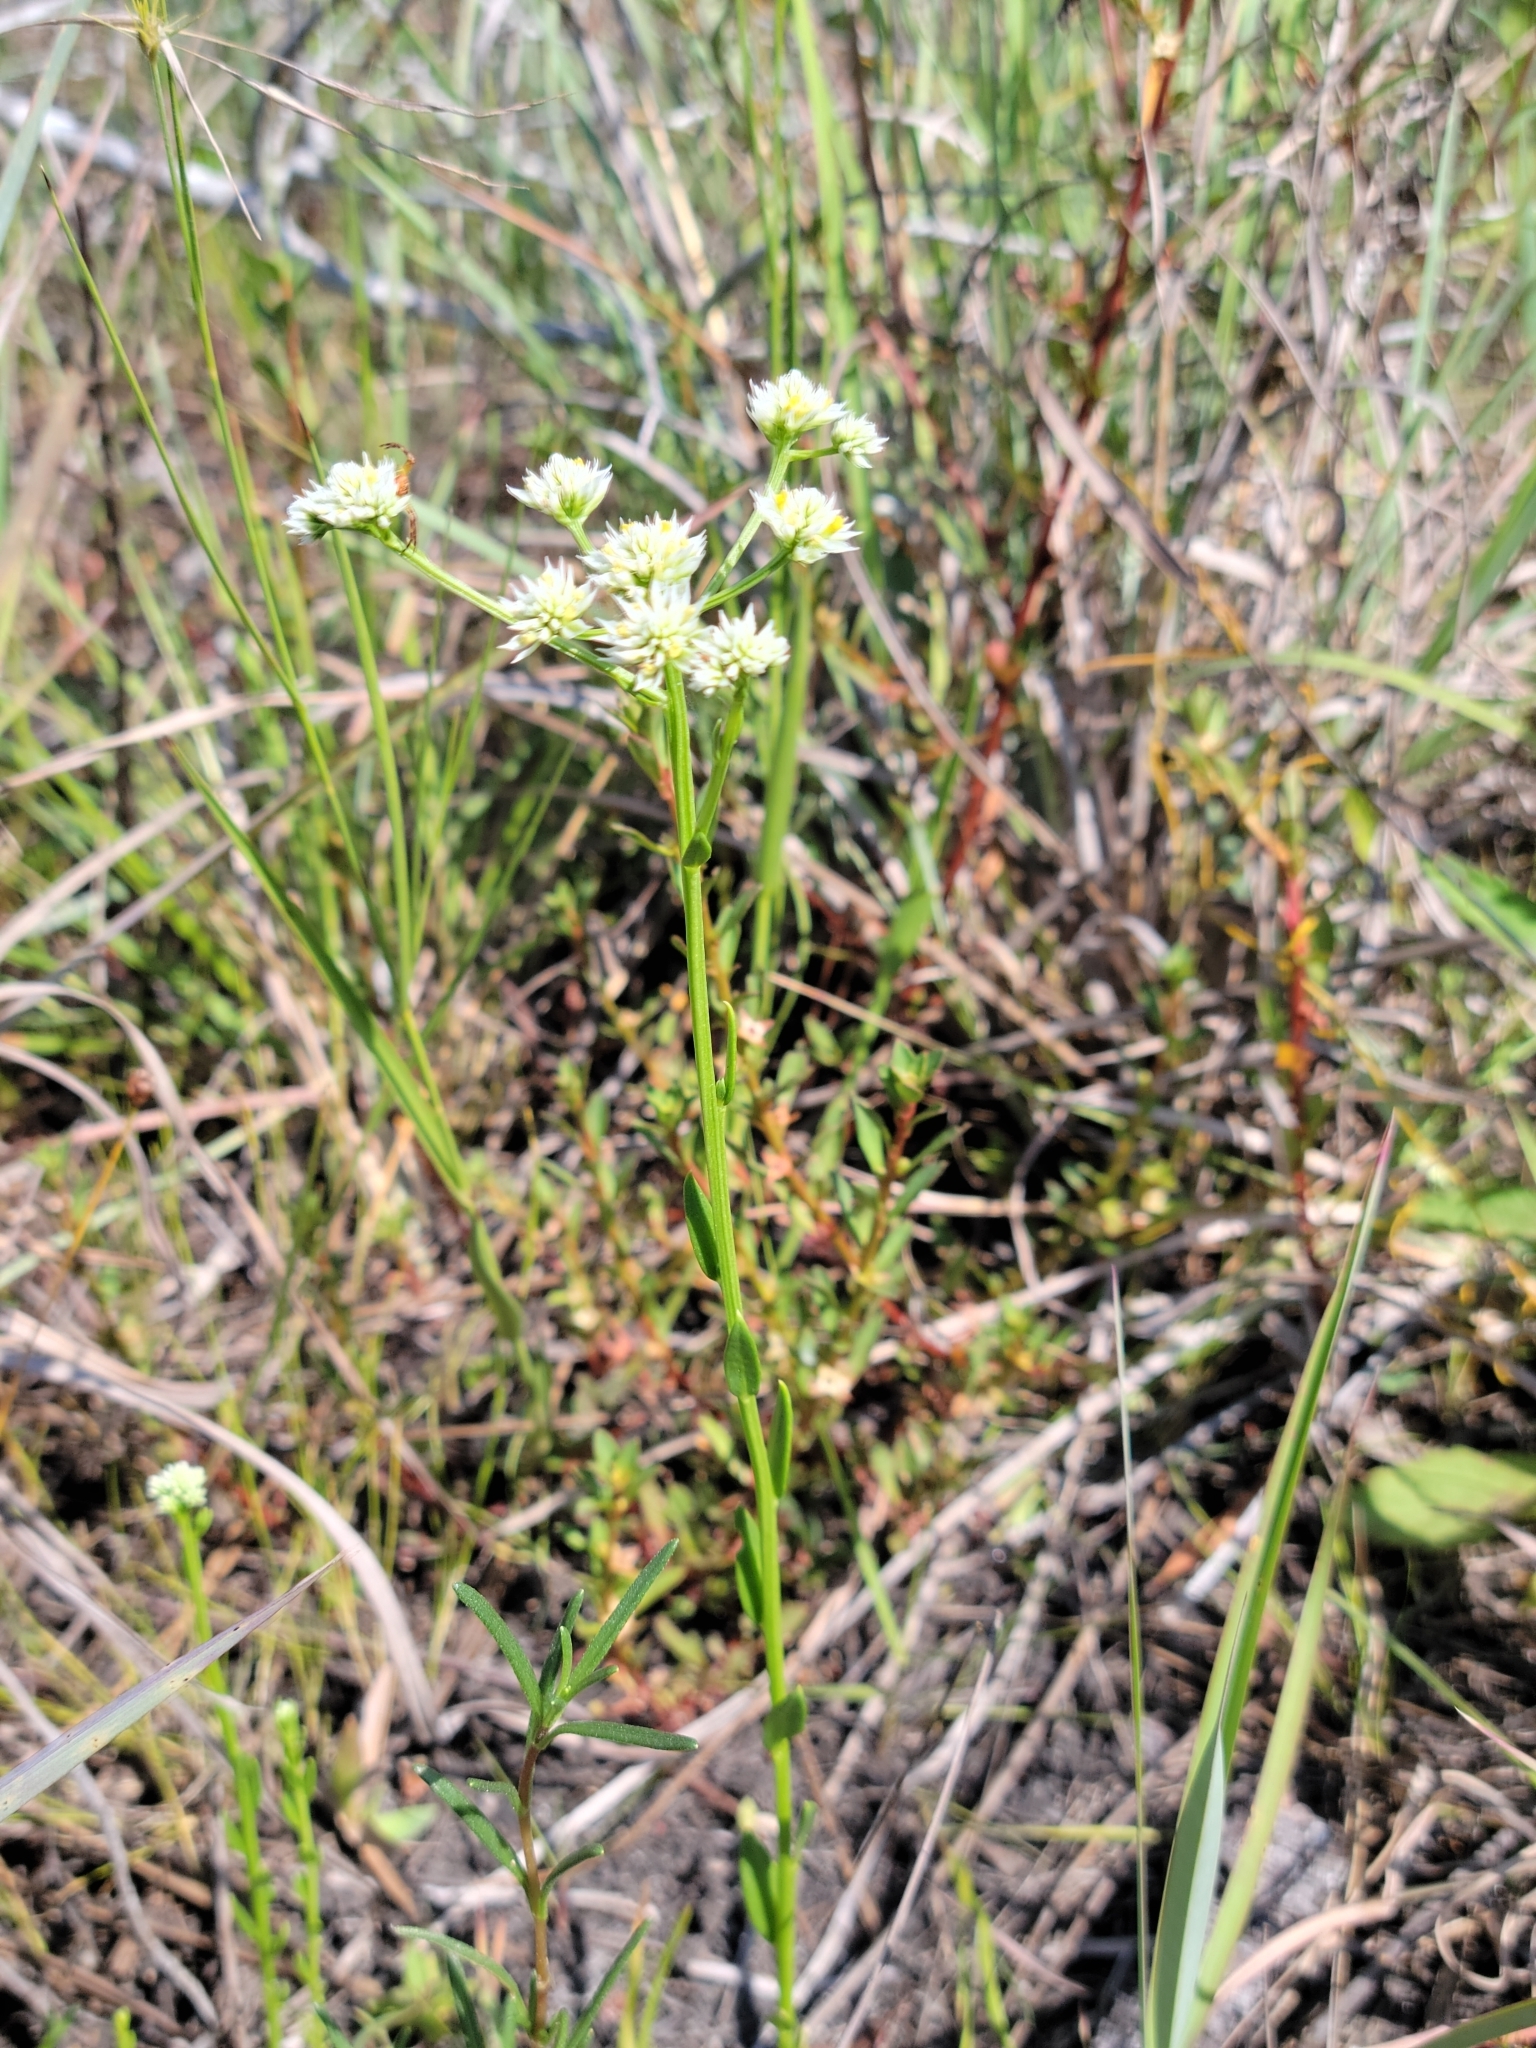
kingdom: Plantae
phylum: Tracheophyta
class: Magnoliopsida
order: Fabales
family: Polygalaceae
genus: Polygala
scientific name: Polygala baldwinii
